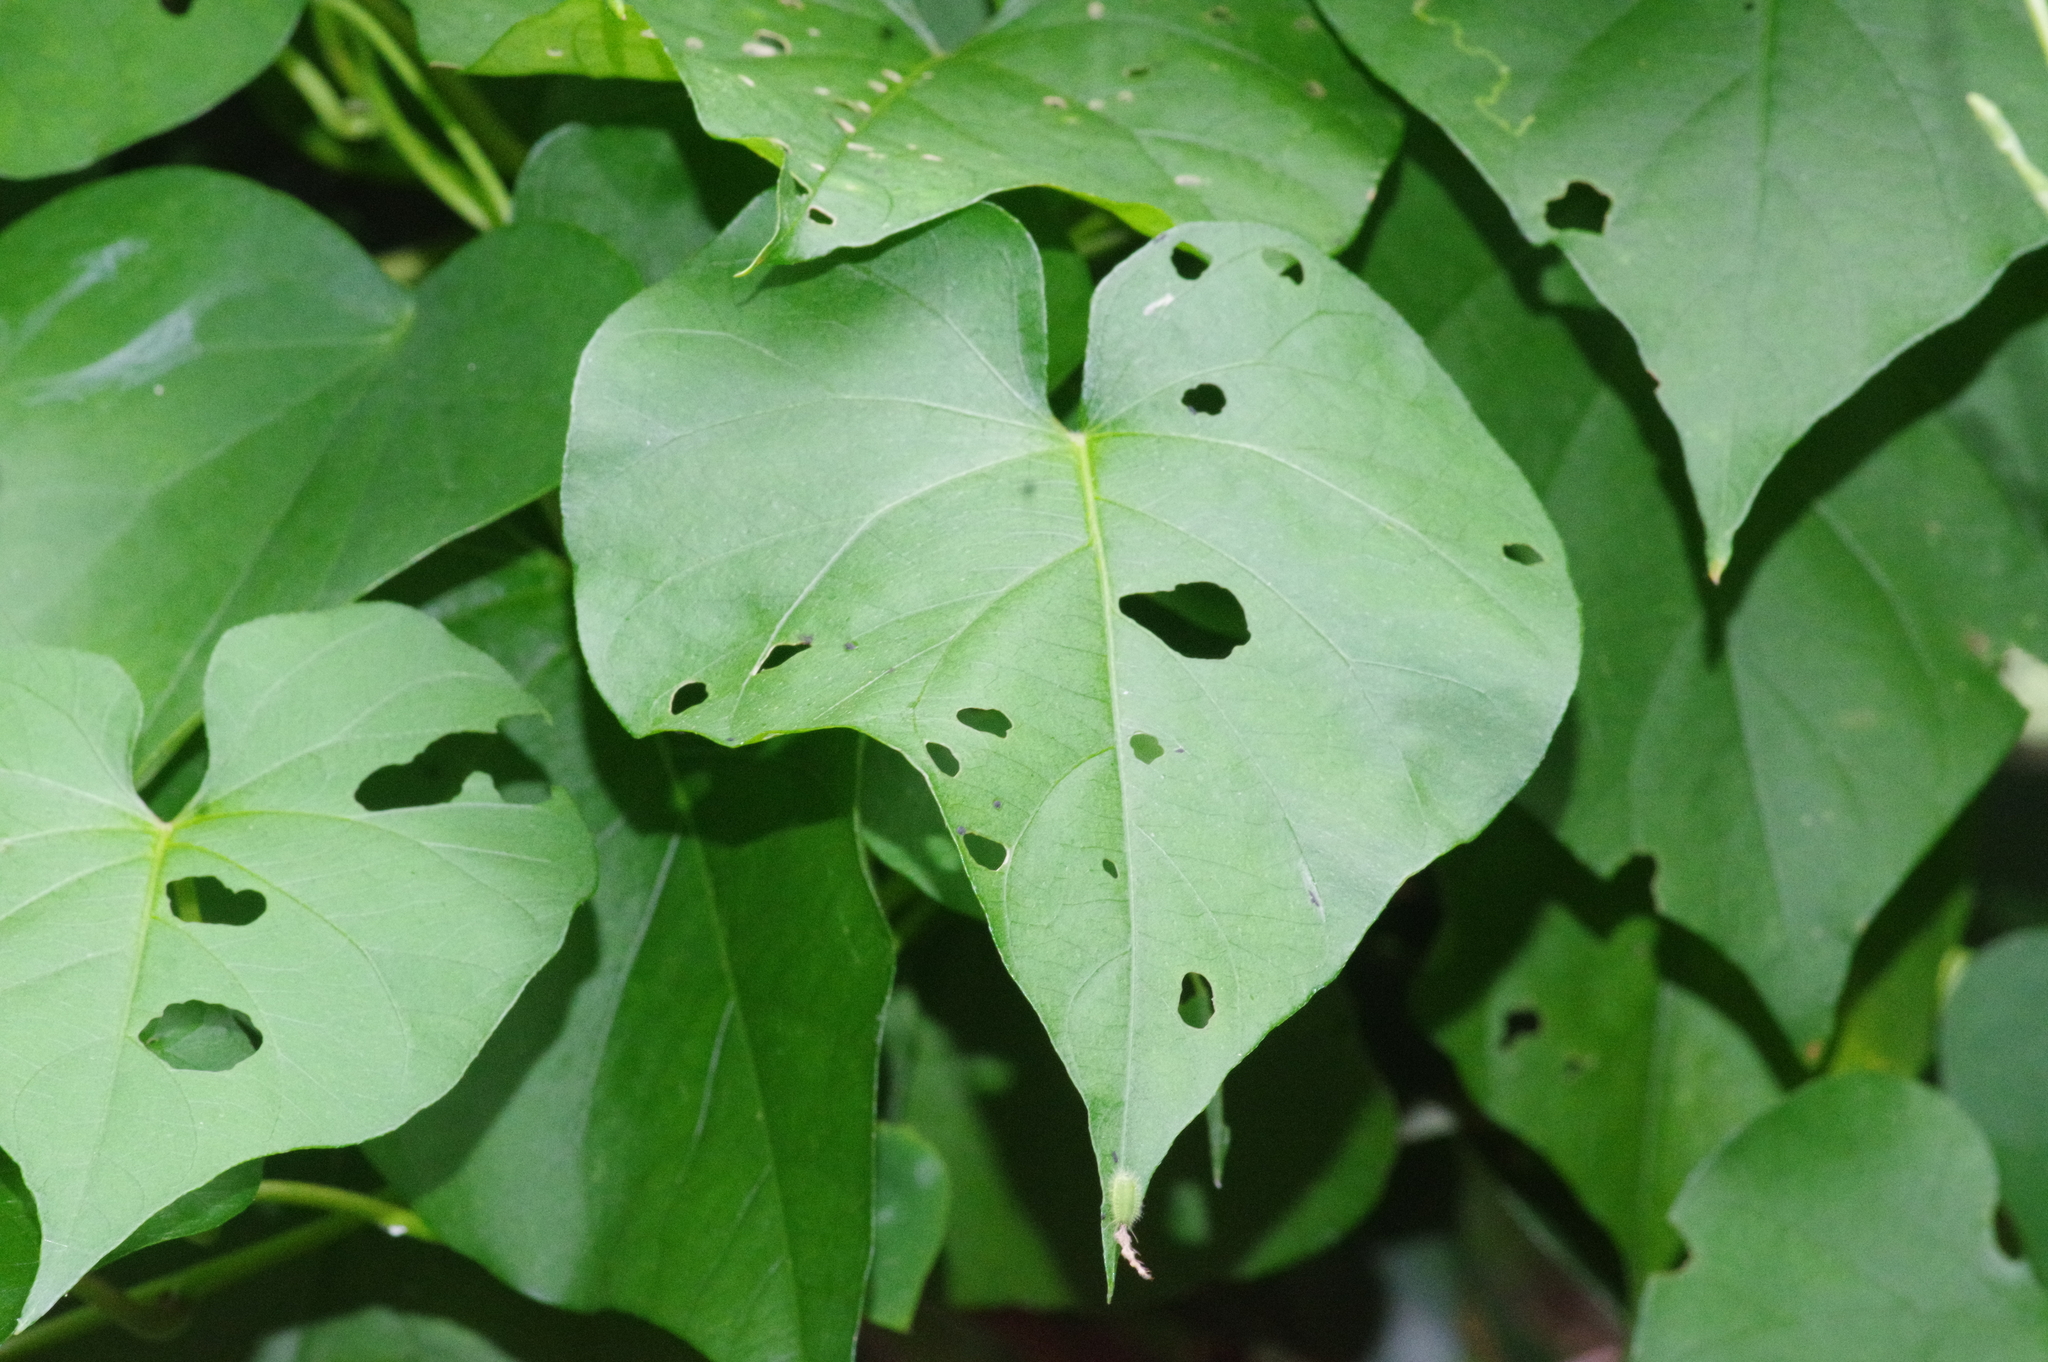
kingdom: Animalia
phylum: Arthropoda
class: Insecta
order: Coleoptera
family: Chrysomelidae
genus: Cassida
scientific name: Cassida circumdata
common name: Tortoise beetle
